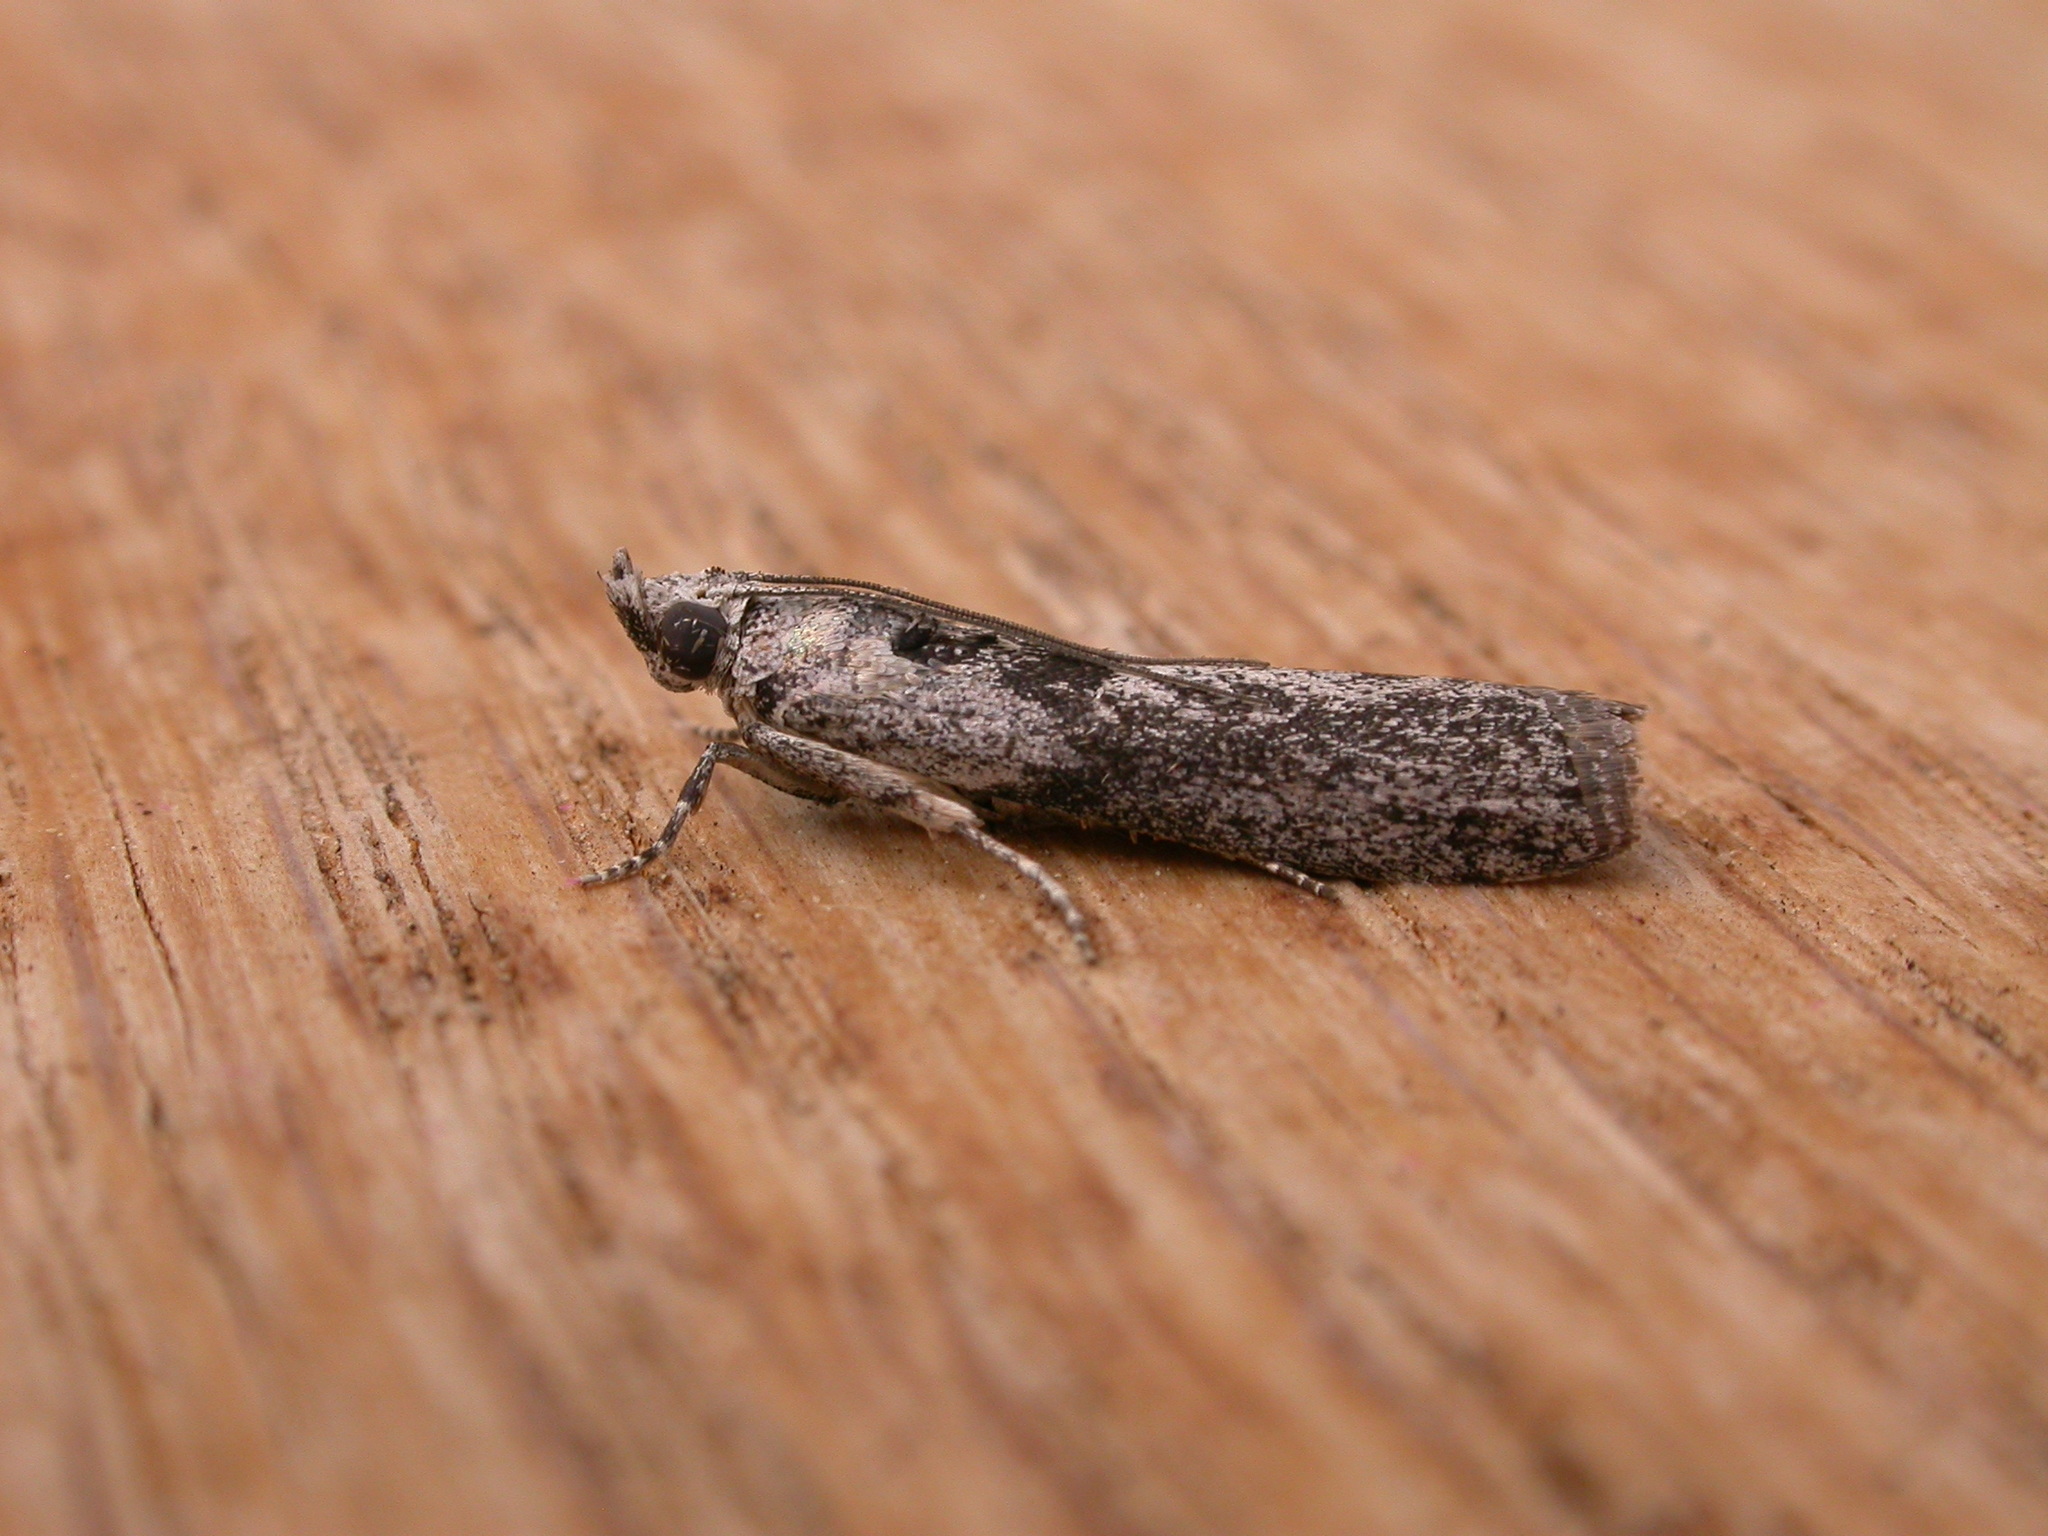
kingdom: Animalia
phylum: Arthropoda
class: Insecta
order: Lepidoptera
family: Pyralidae
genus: Sciota
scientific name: Sciota
